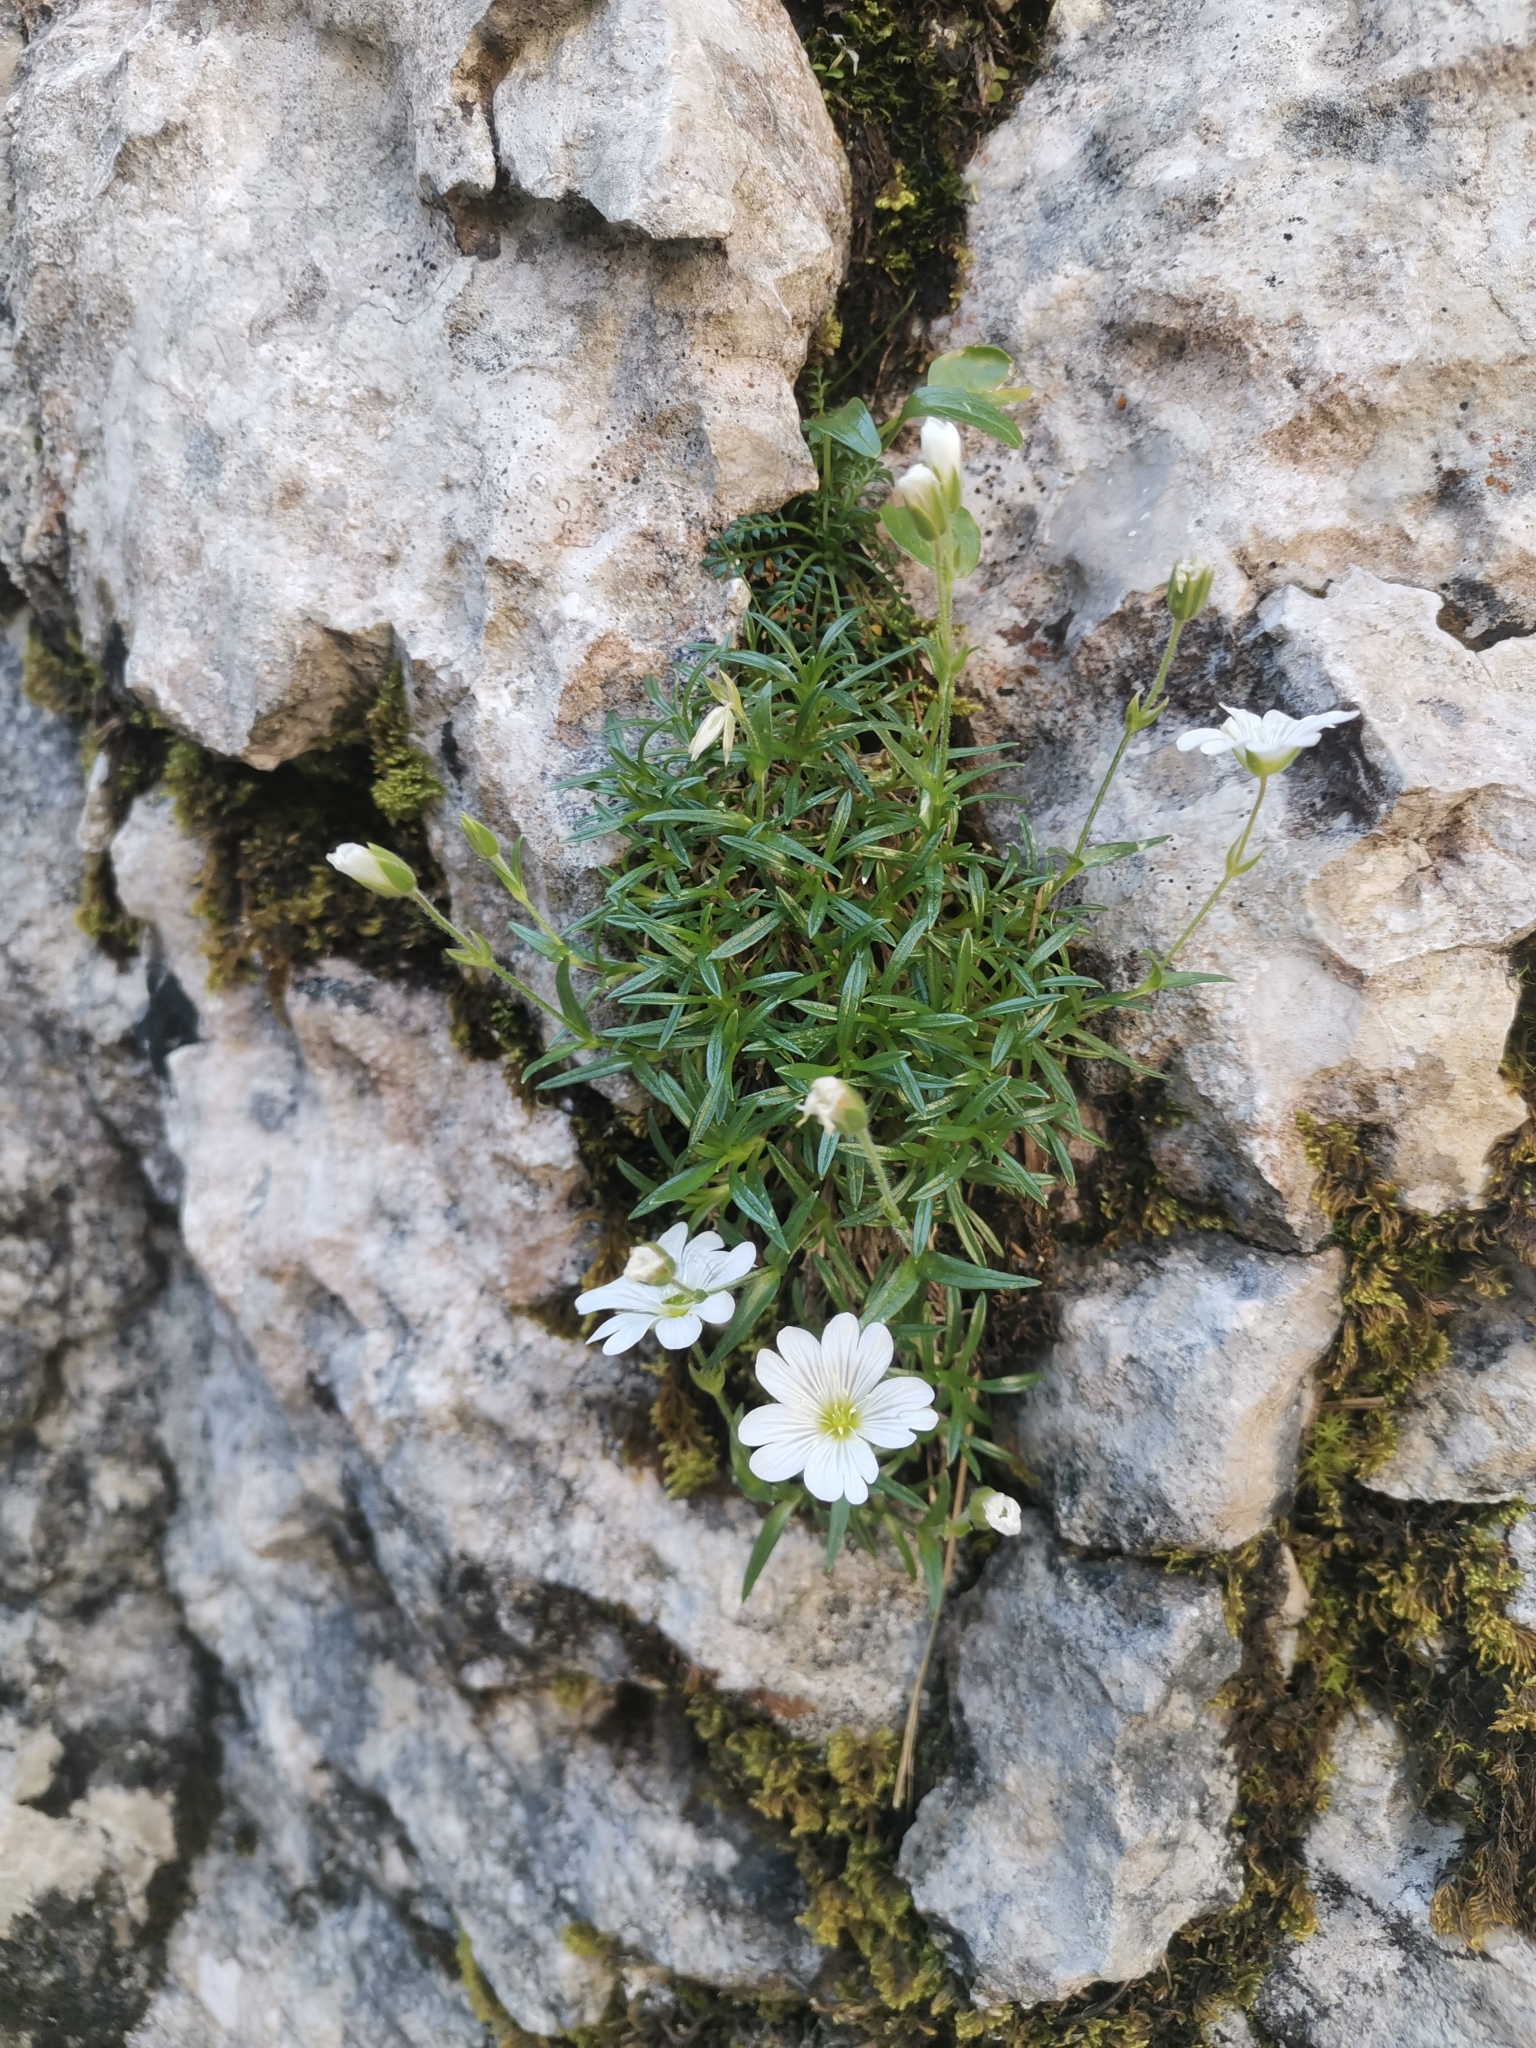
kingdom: Plantae
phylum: Tracheophyta
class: Magnoliopsida
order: Caryophyllales
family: Caryophyllaceae
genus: Cerastium
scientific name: Cerastium julicum
